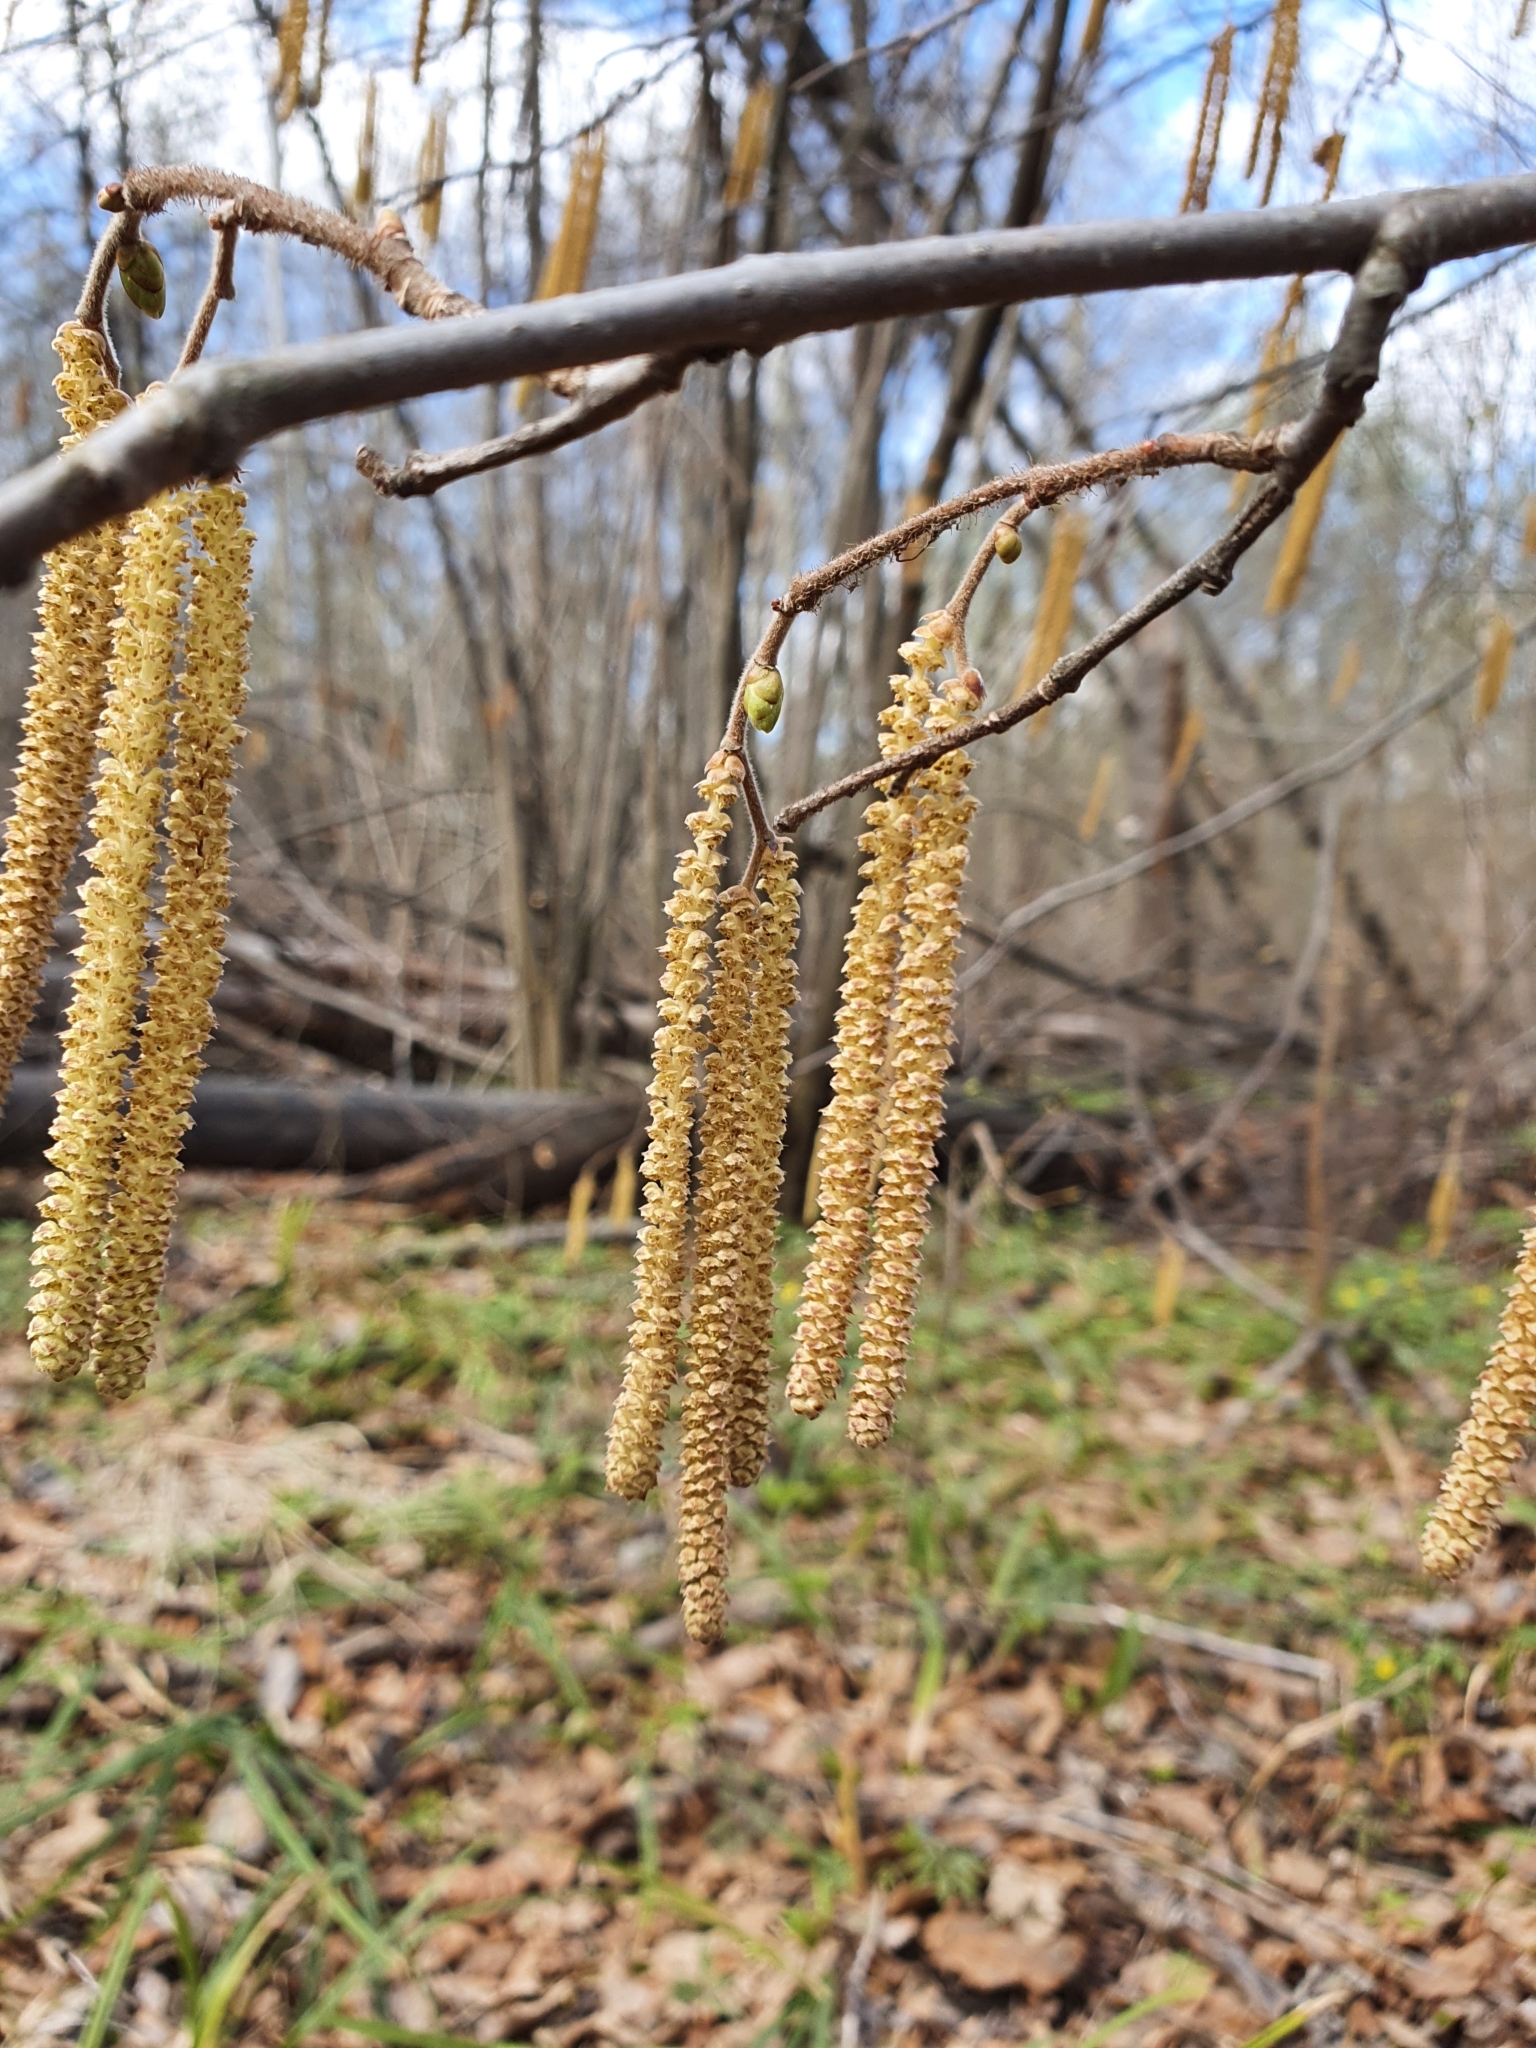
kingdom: Plantae
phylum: Tracheophyta
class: Magnoliopsida
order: Fagales
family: Betulaceae
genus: Corylus
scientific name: Corylus avellana
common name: European hazel
